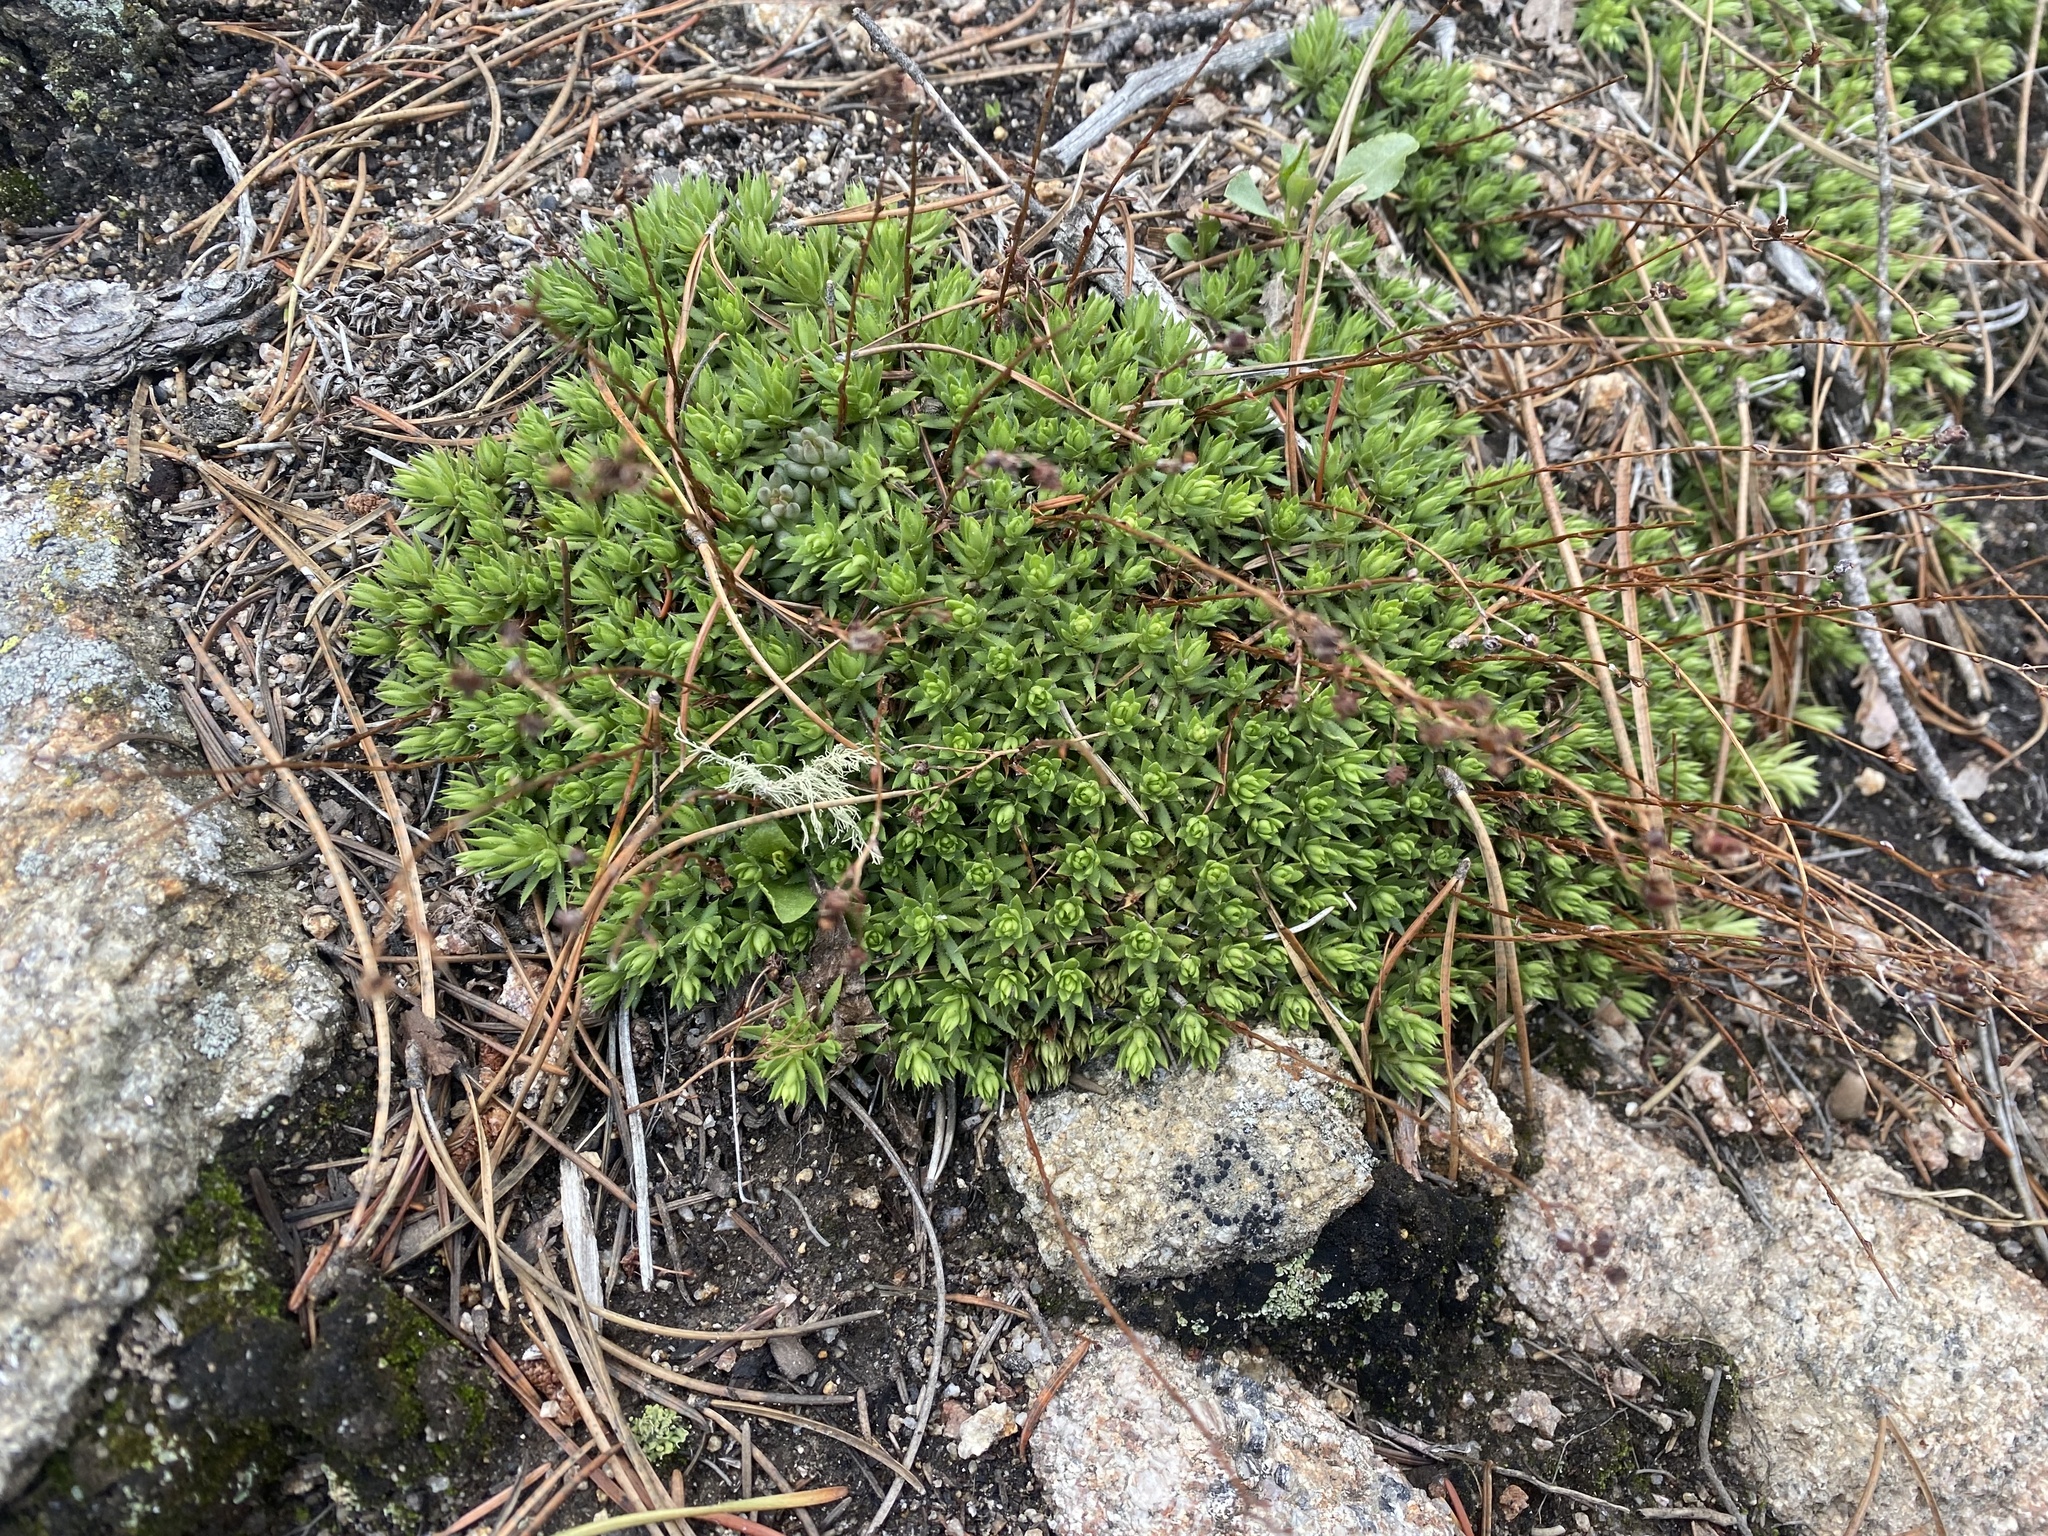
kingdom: Plantae
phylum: Tracheophyta
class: Magnoliopsida
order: Saxifragales
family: Saxifragaceae
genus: Saxifraga
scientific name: Saxifraga bronchialis
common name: Matted saxifrage
